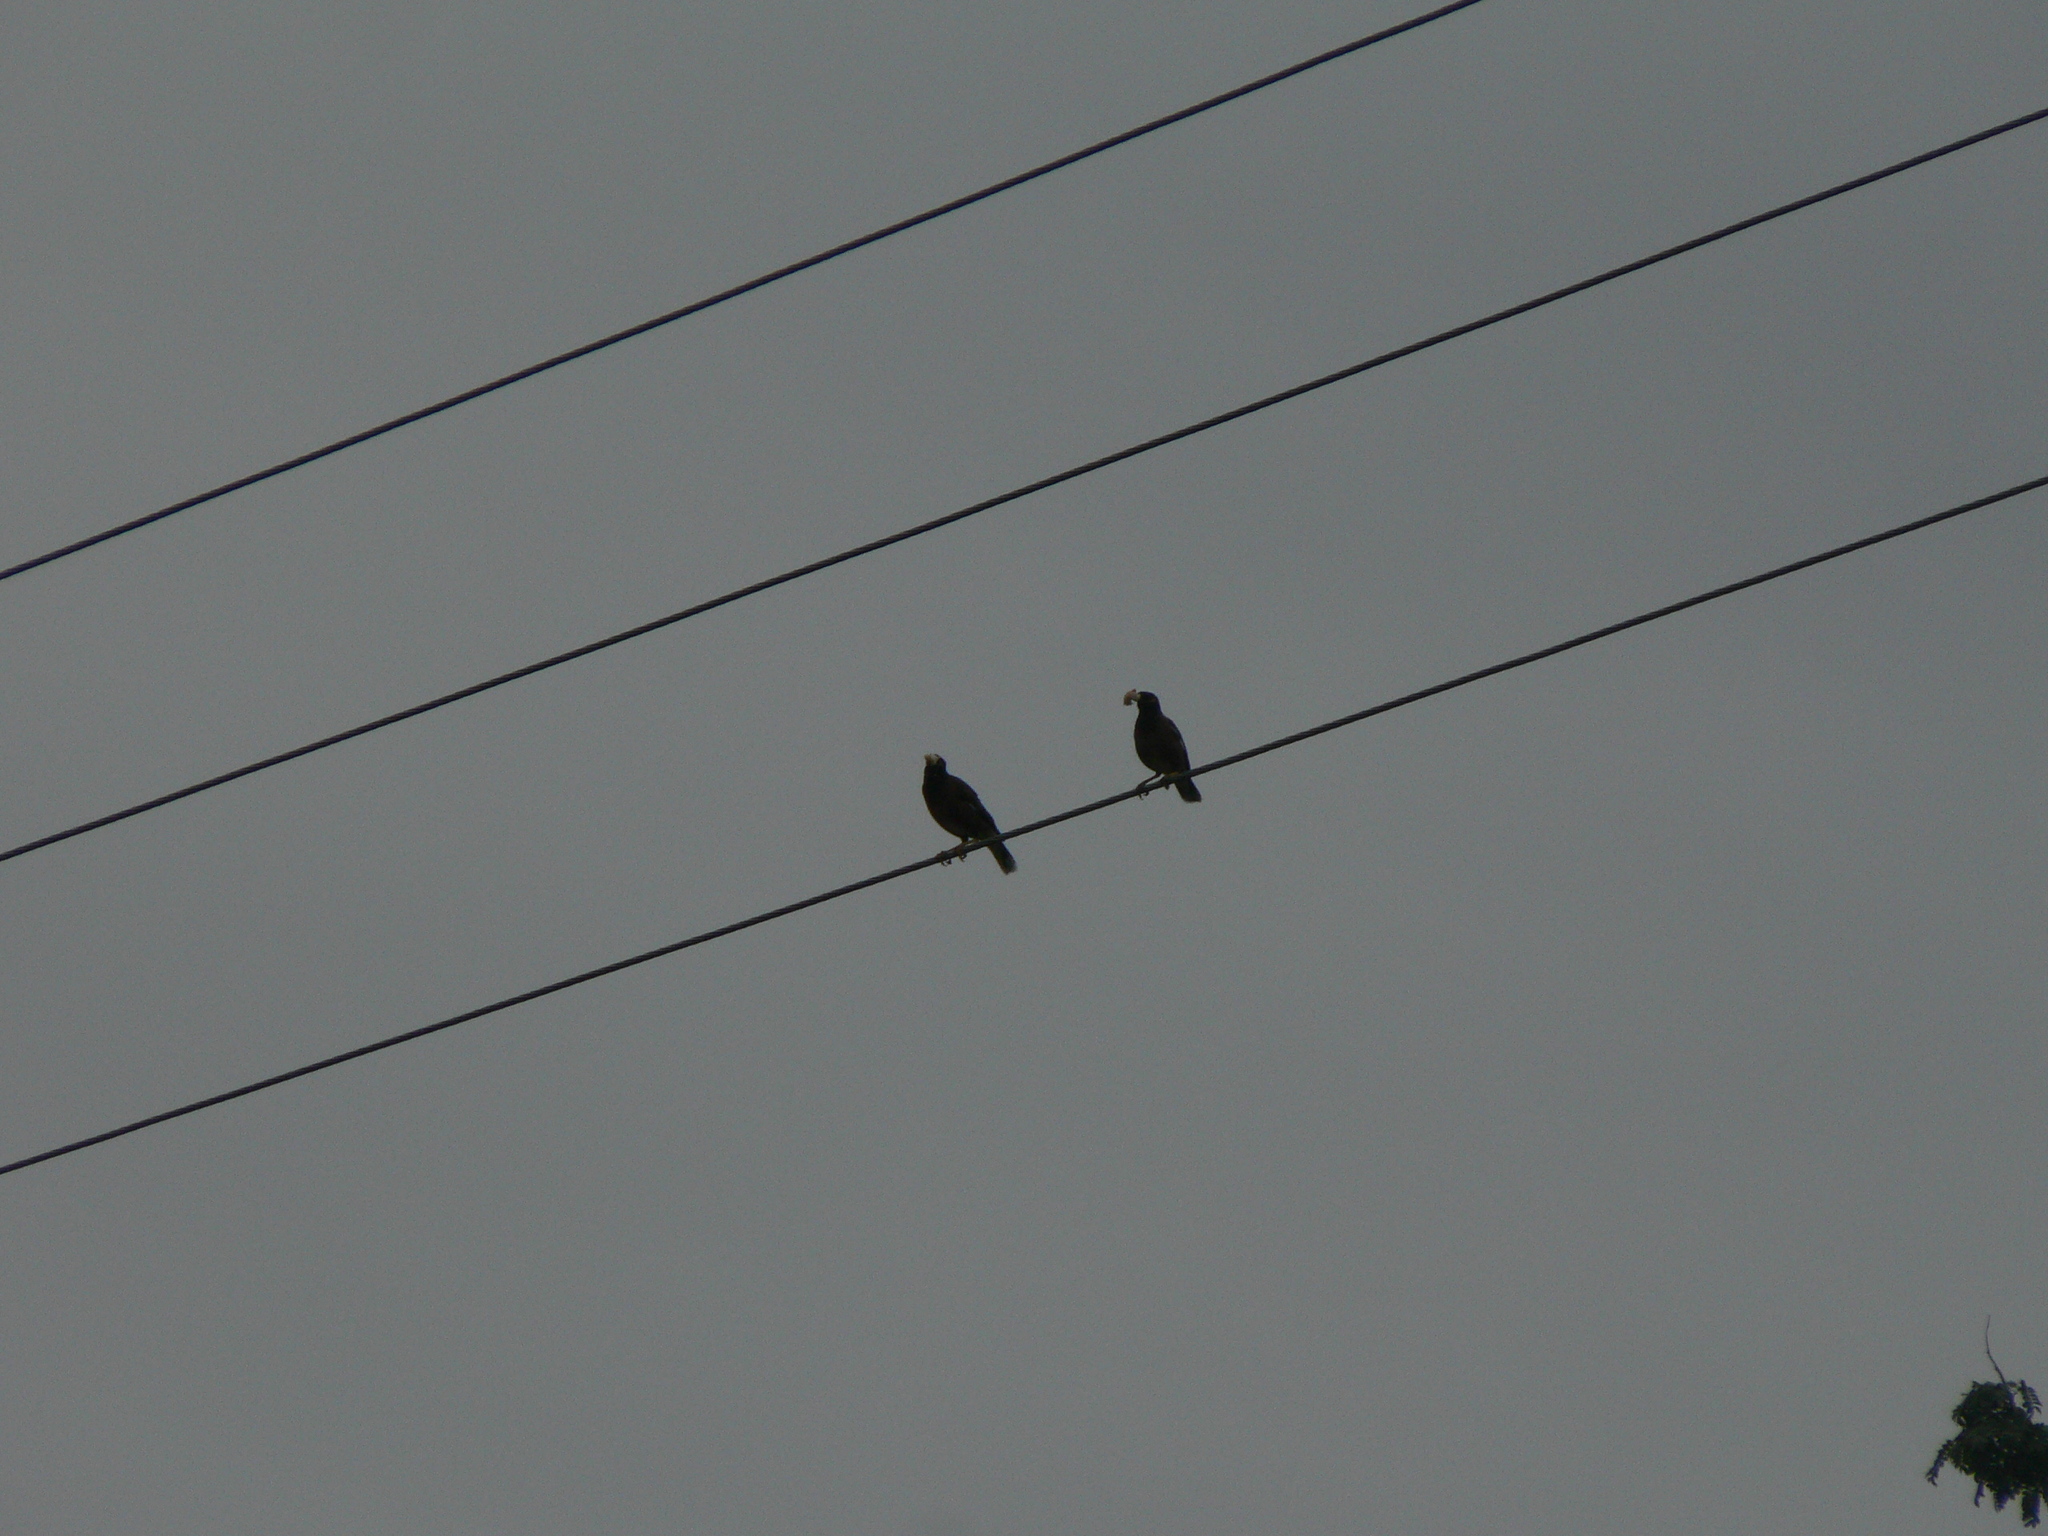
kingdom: Animalia
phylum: Chordata
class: Aves
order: Passeriformes
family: Sturnidae
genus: Acridotheres
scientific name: Acridotheres tristis
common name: Common myna
